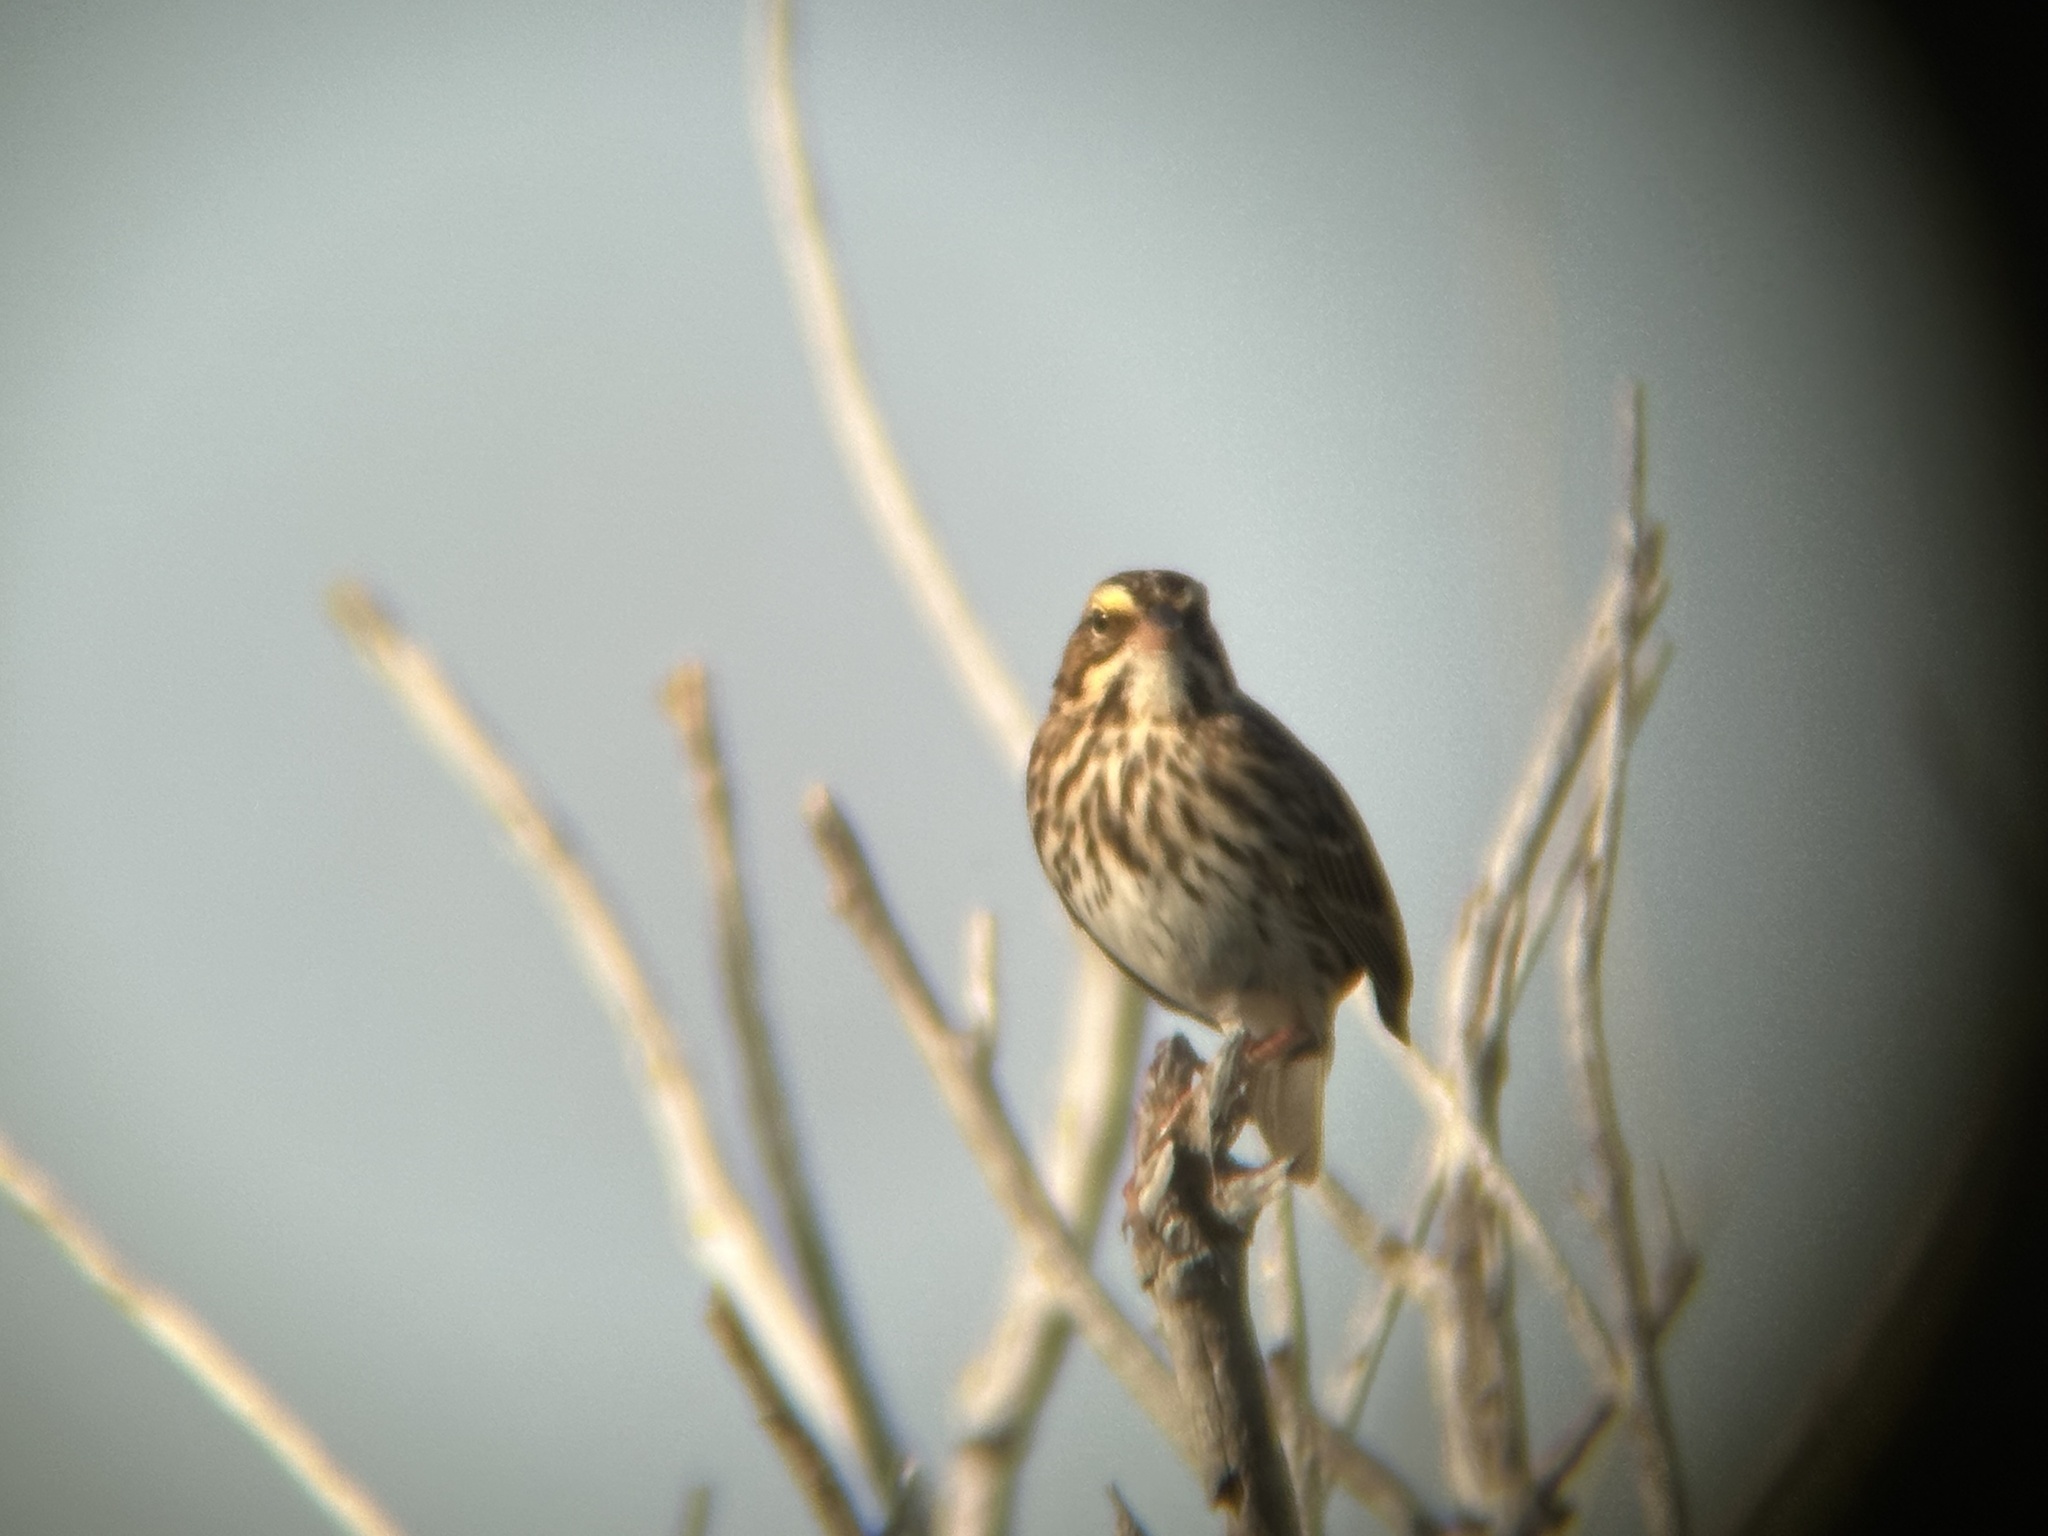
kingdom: Animalia
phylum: Chordata
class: Aves
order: Passeriformes
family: Passerellidae
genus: Passerculus
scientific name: Passerculus sandwichensis
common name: Savannah sparrow
